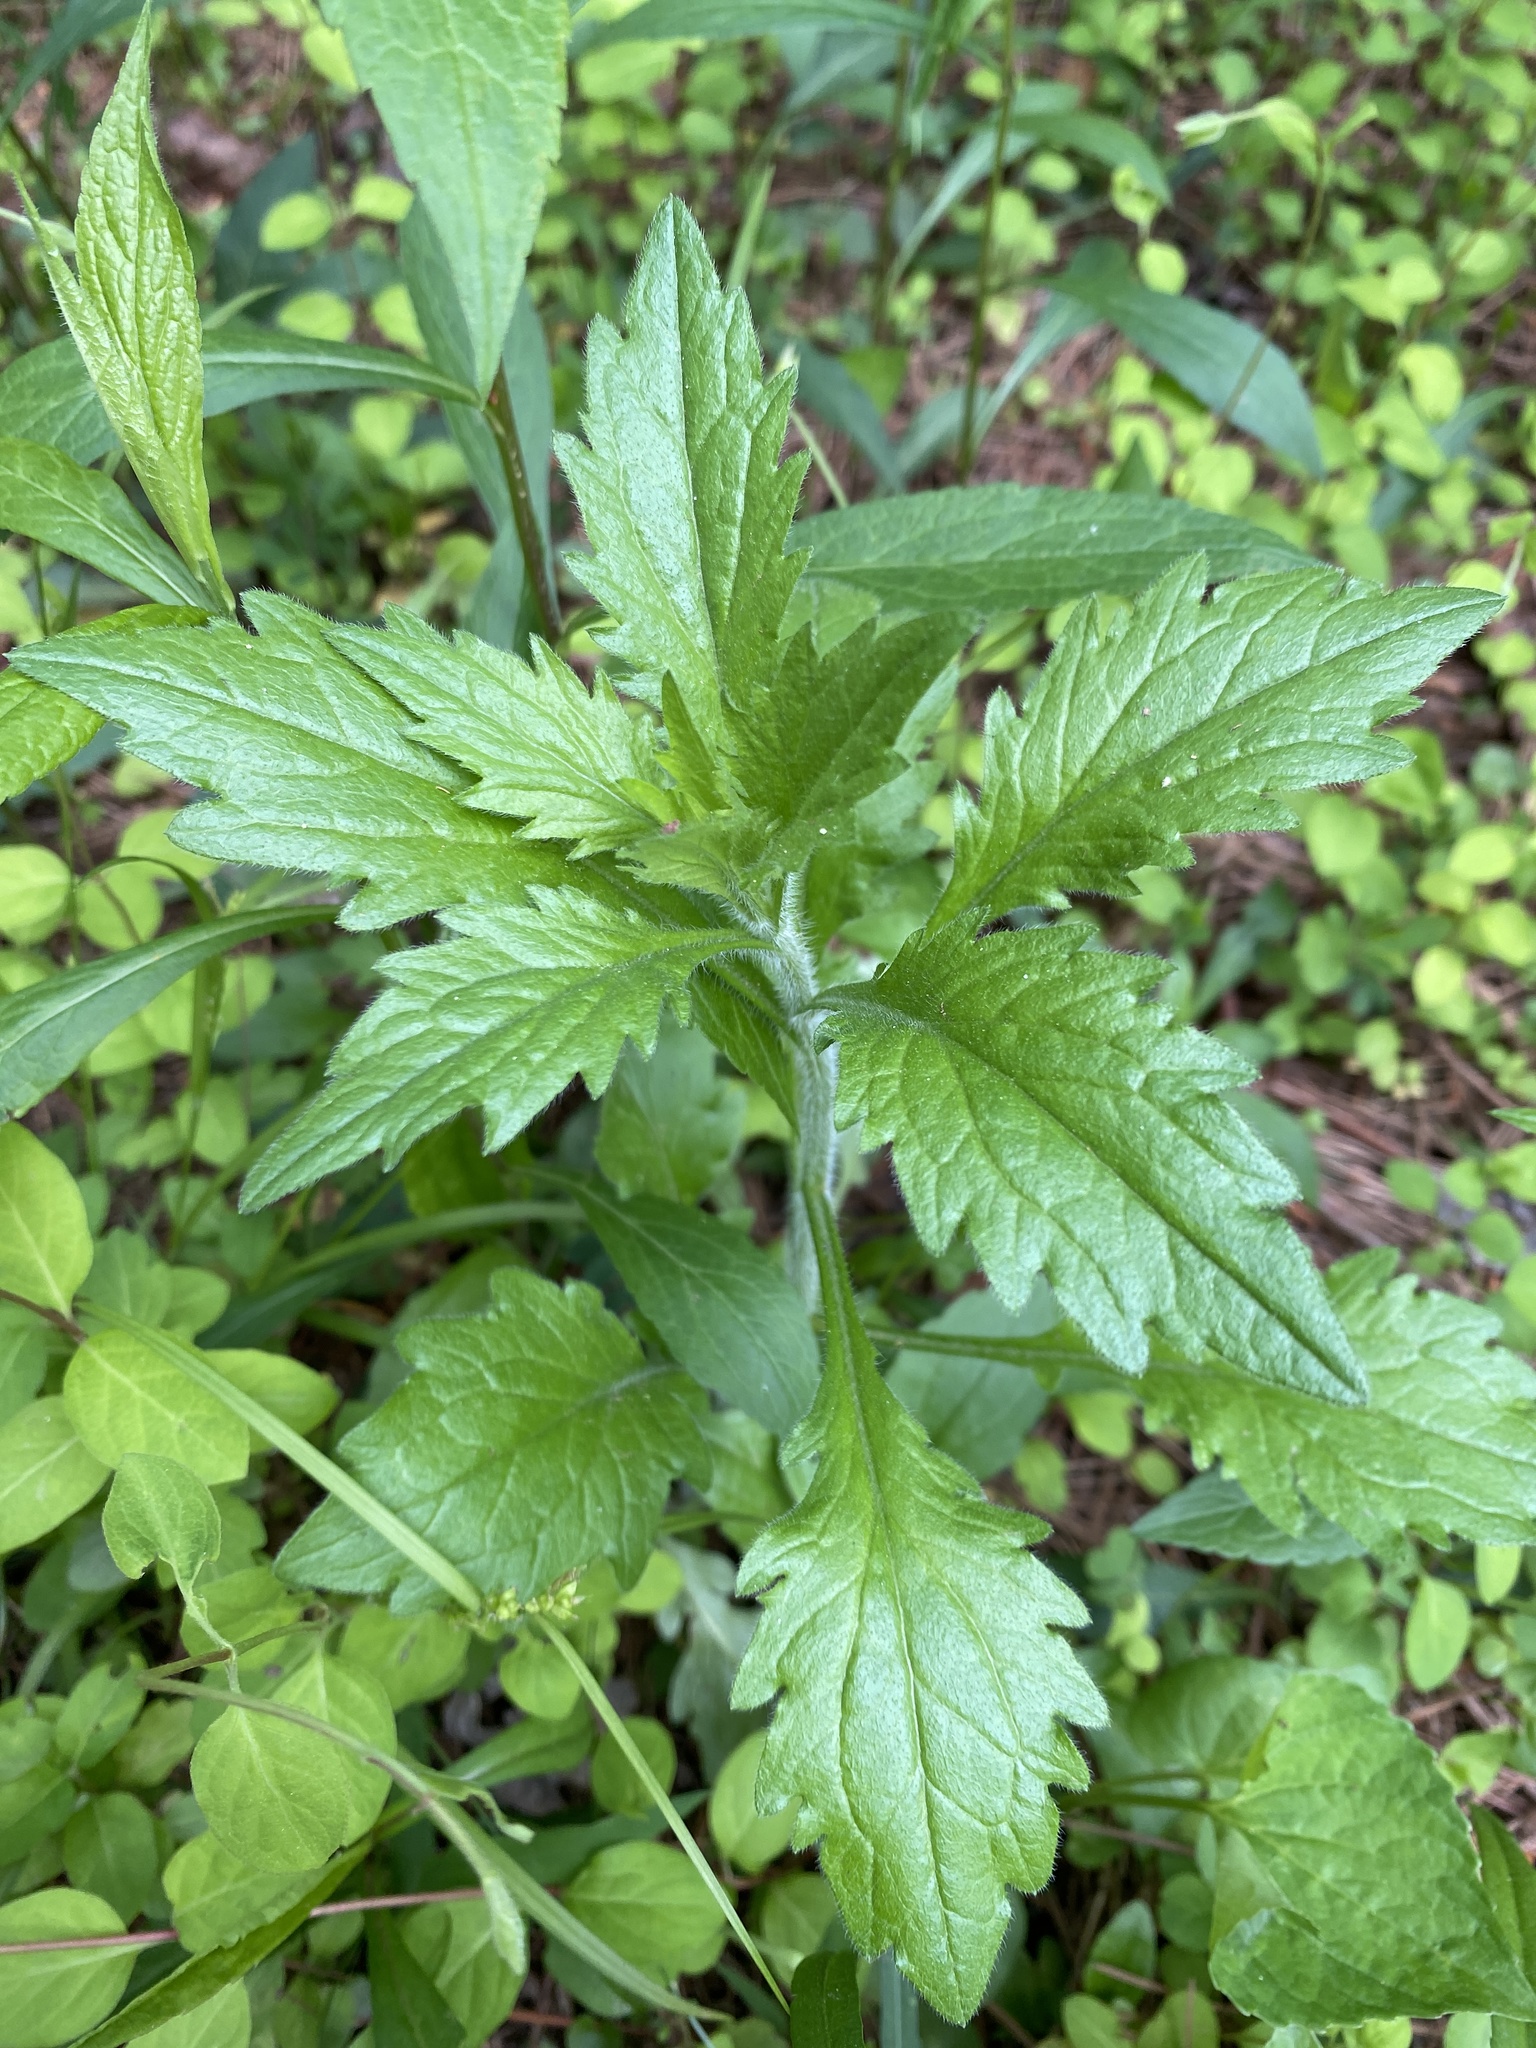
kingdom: Plantae
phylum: Tracheophyta
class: Magnoliopsida
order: Asterales
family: Asteraceae
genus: Erigeron
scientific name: Erigeron annuus
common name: Tall fleabane
